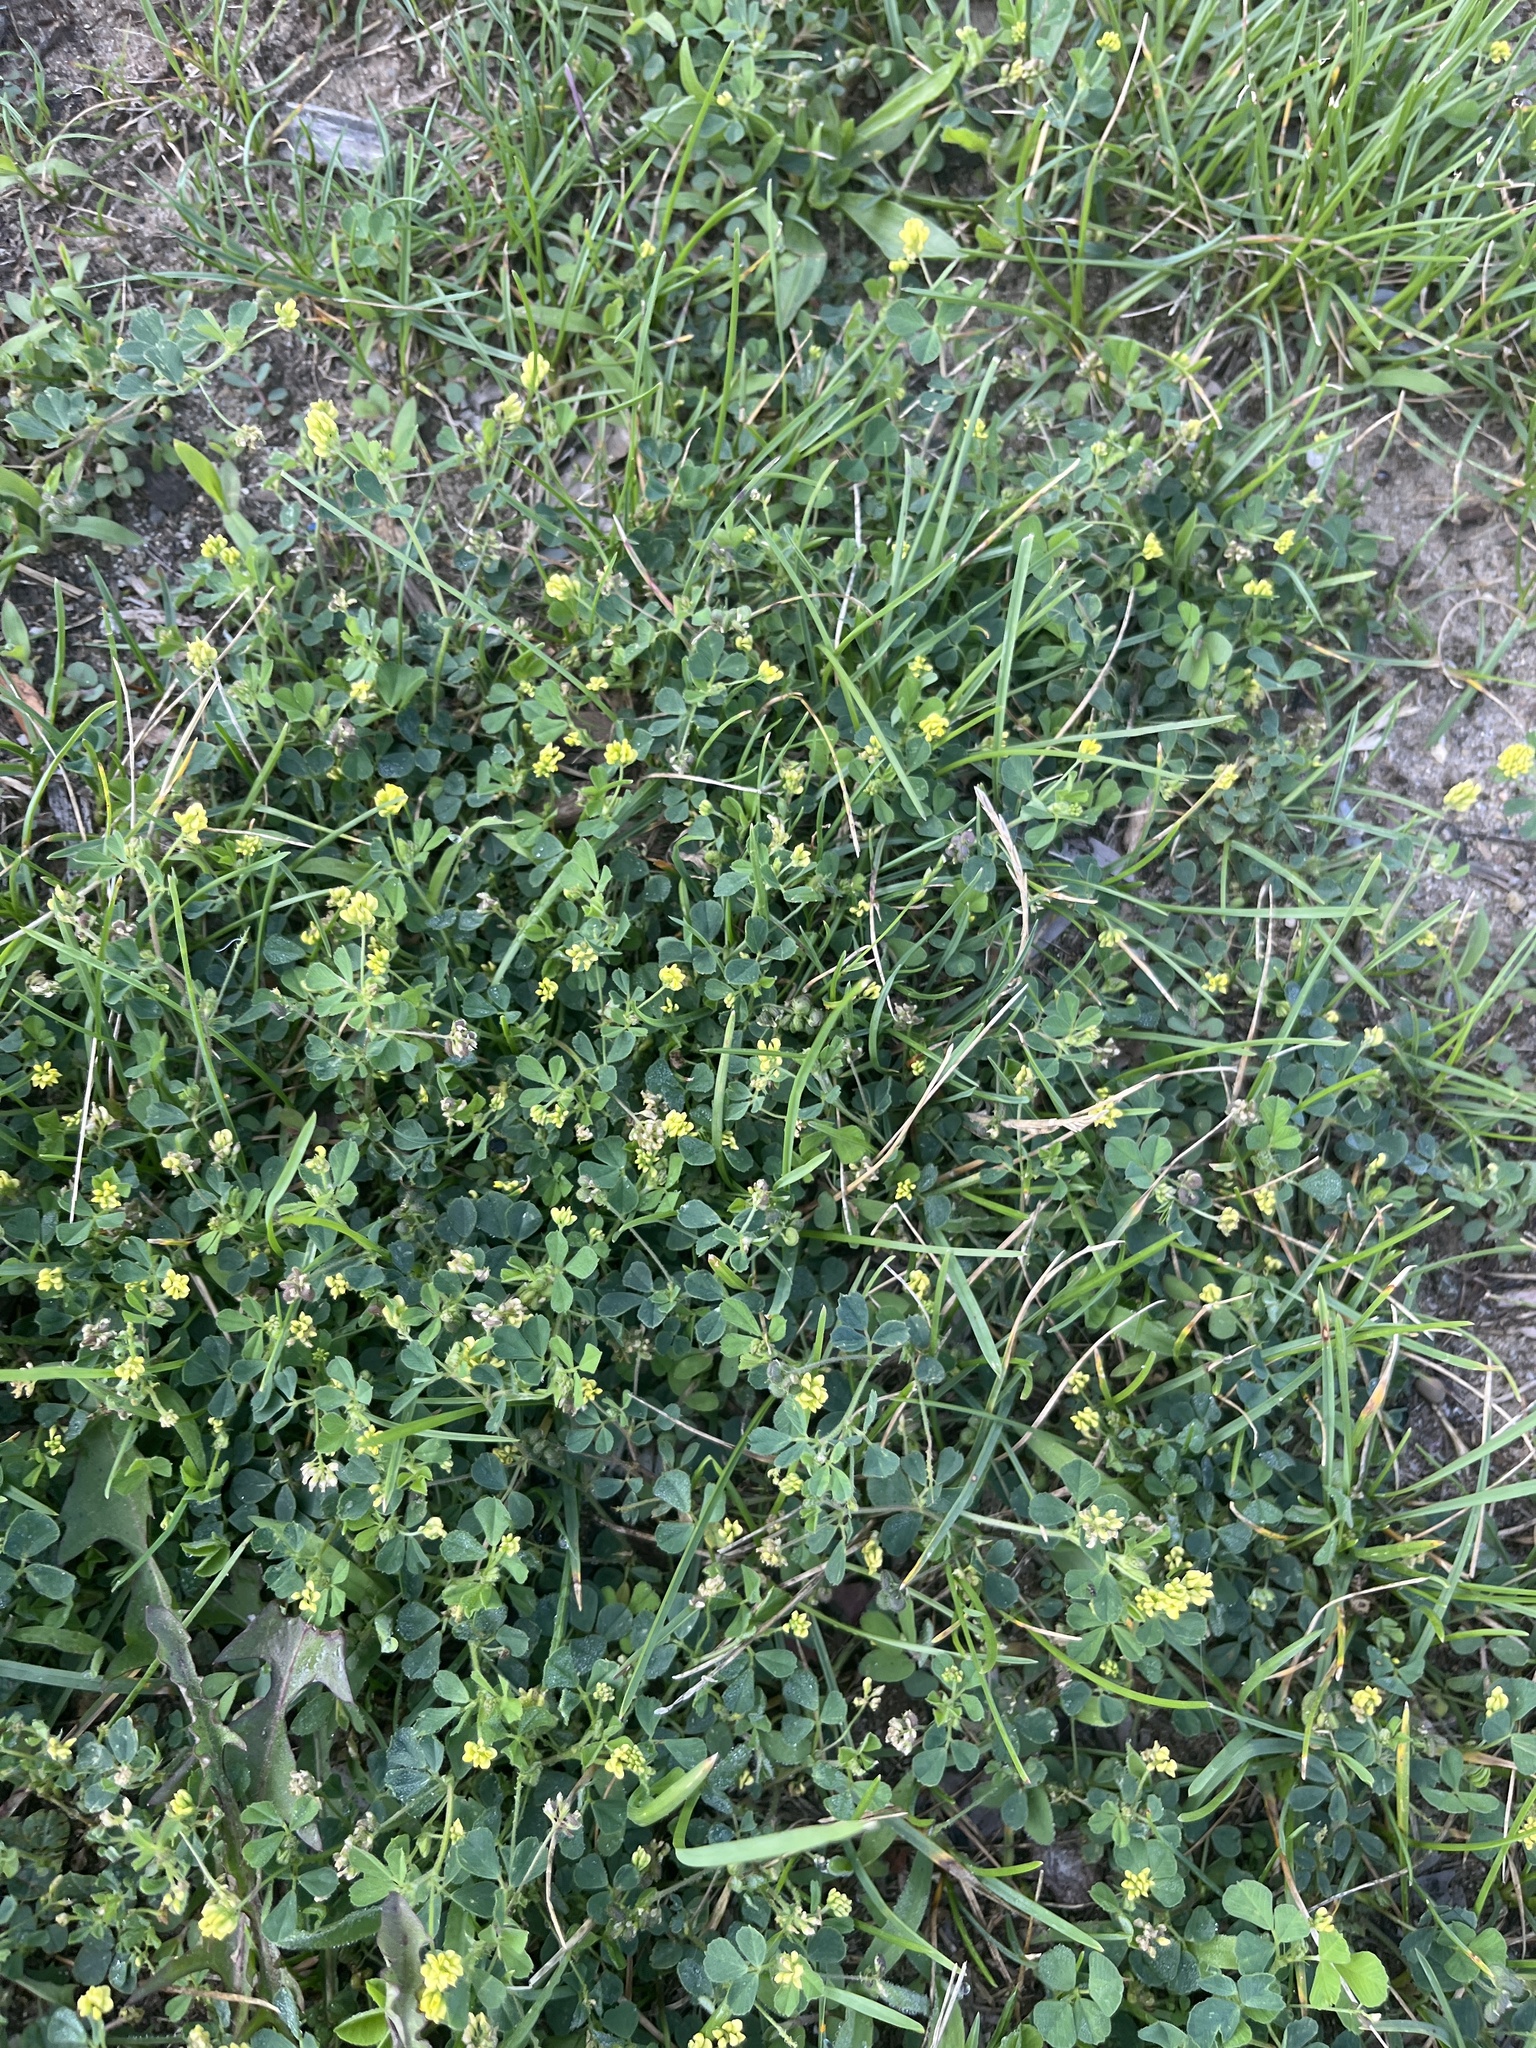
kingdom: Plantae
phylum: Tracheophyta
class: Magnoliopsida
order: Fabales
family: Fabaceae
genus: Medicago
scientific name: Medicago lupulina
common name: Black medick
